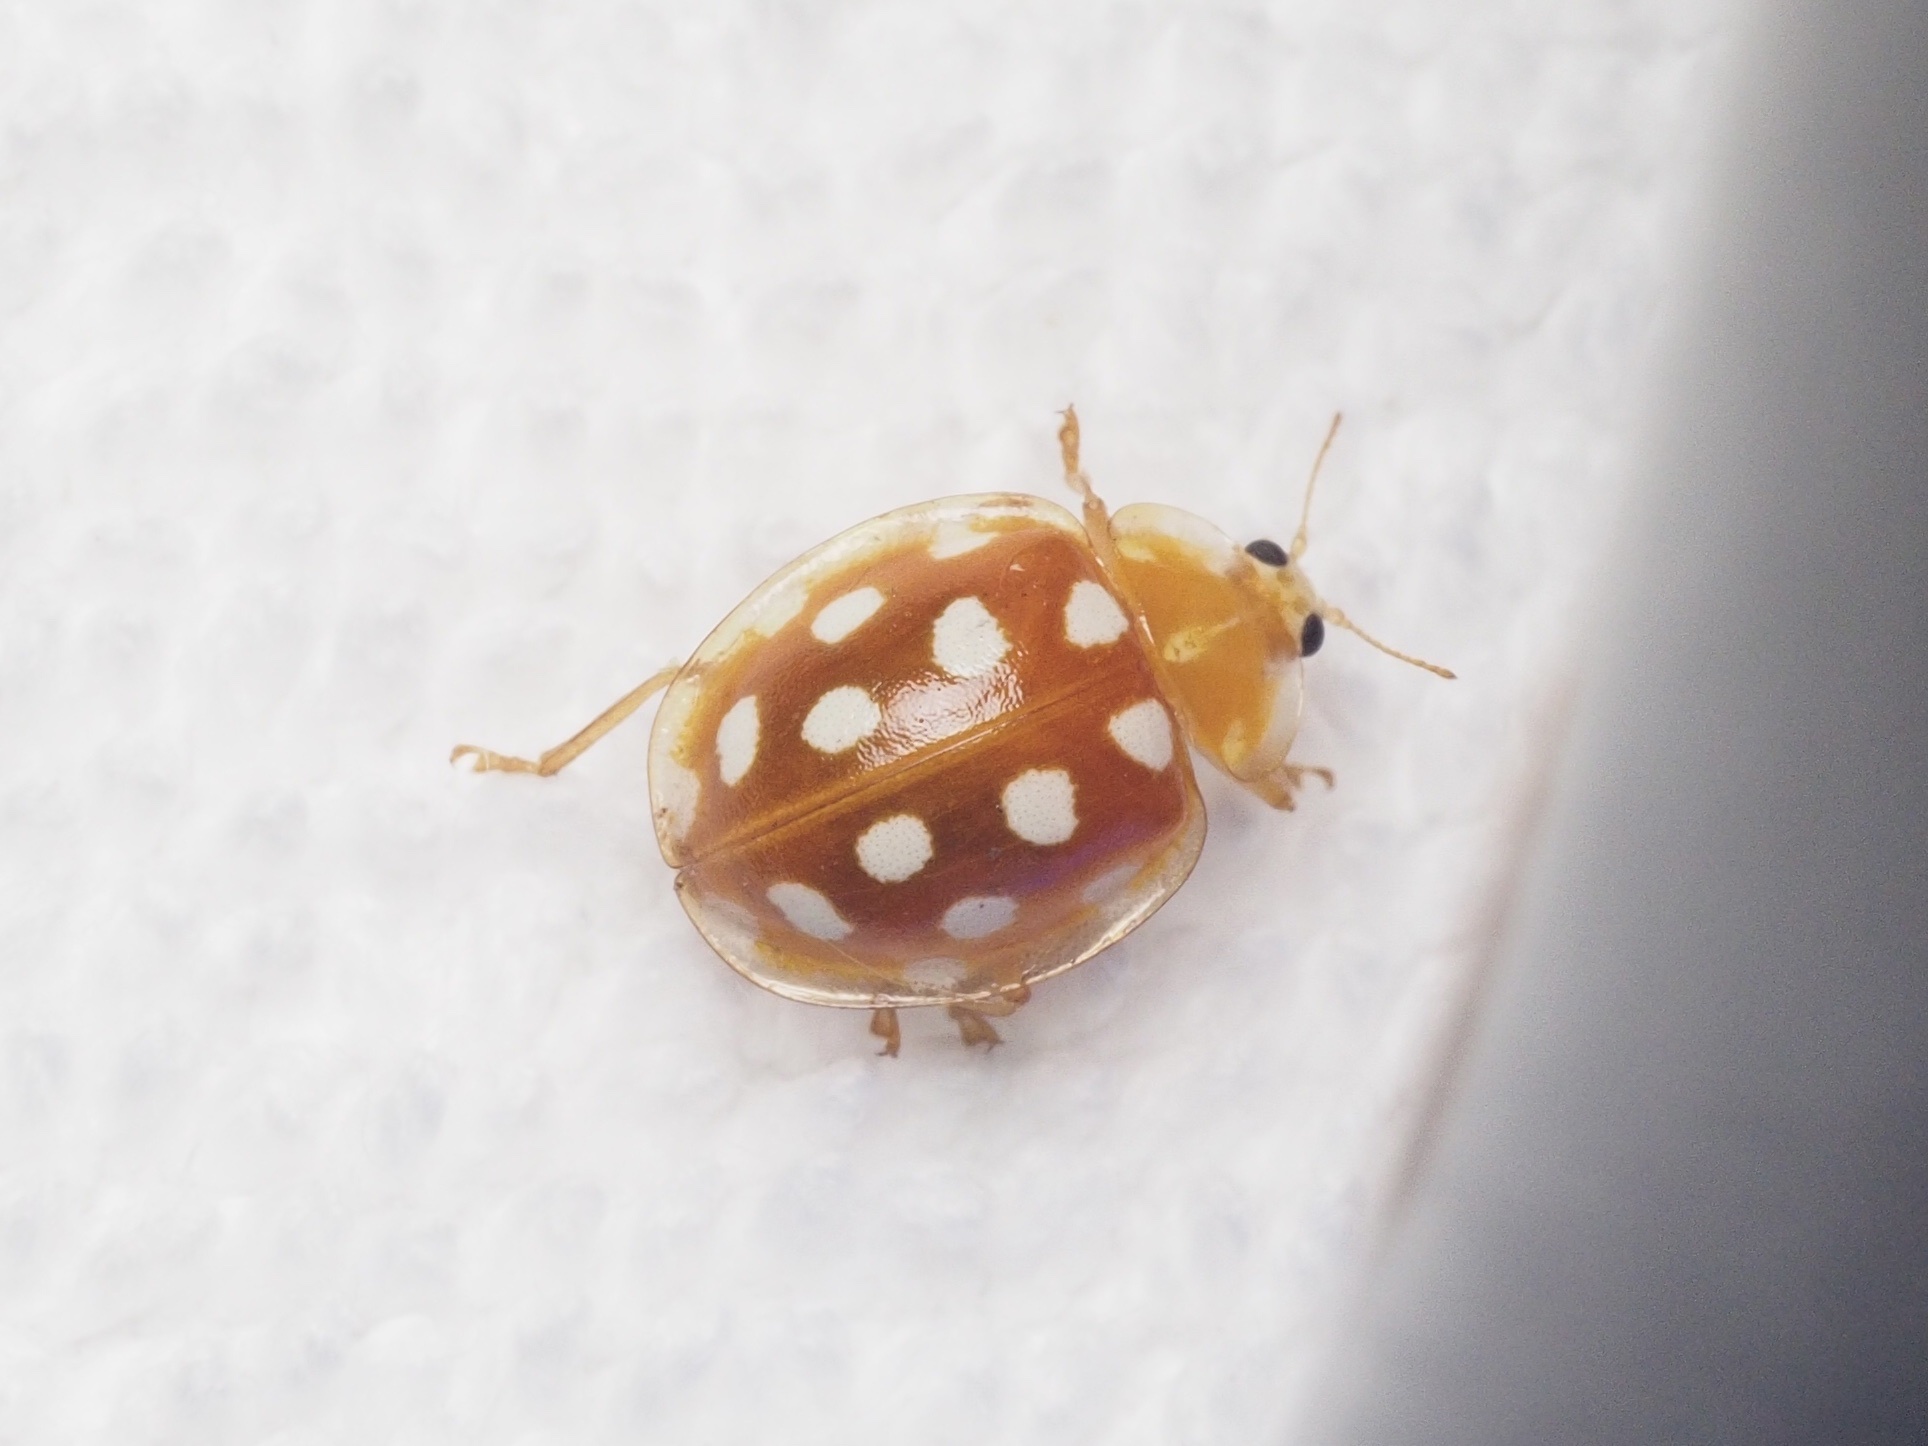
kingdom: Animalia
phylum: Arthropoda
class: Insecta
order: Coleoptera
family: Coccinellidae
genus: Halyzia
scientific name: Halyzia sedecimguttata
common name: Orange ladybird
